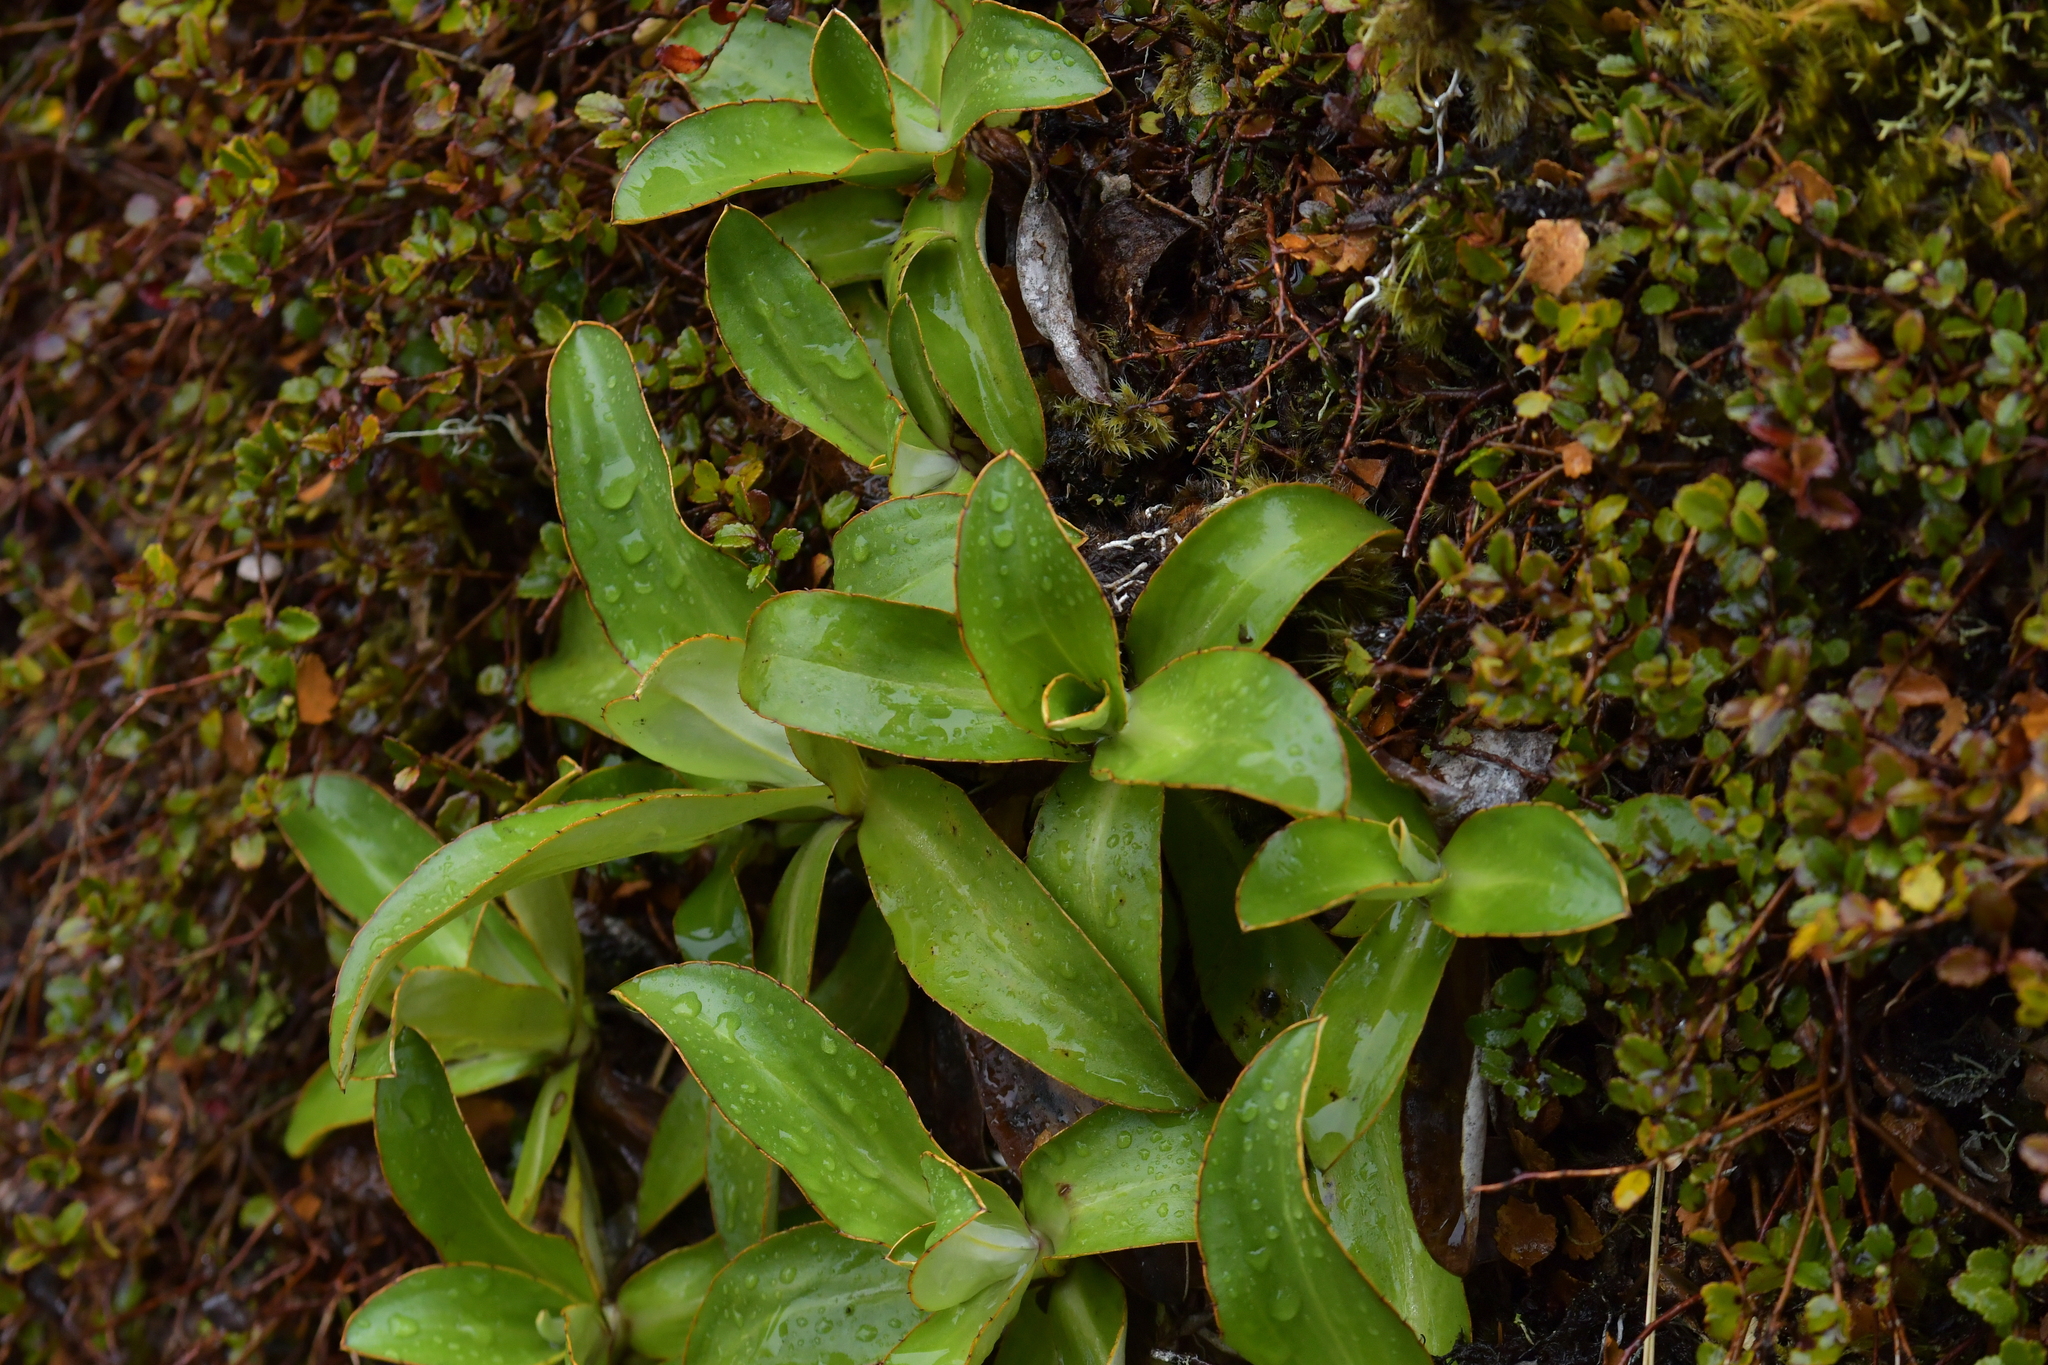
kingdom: Plantae
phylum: Tracheophyta
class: Magnoliopsida
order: Asterales
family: Asteraceae
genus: Celmisia
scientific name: Celmisia dallii
